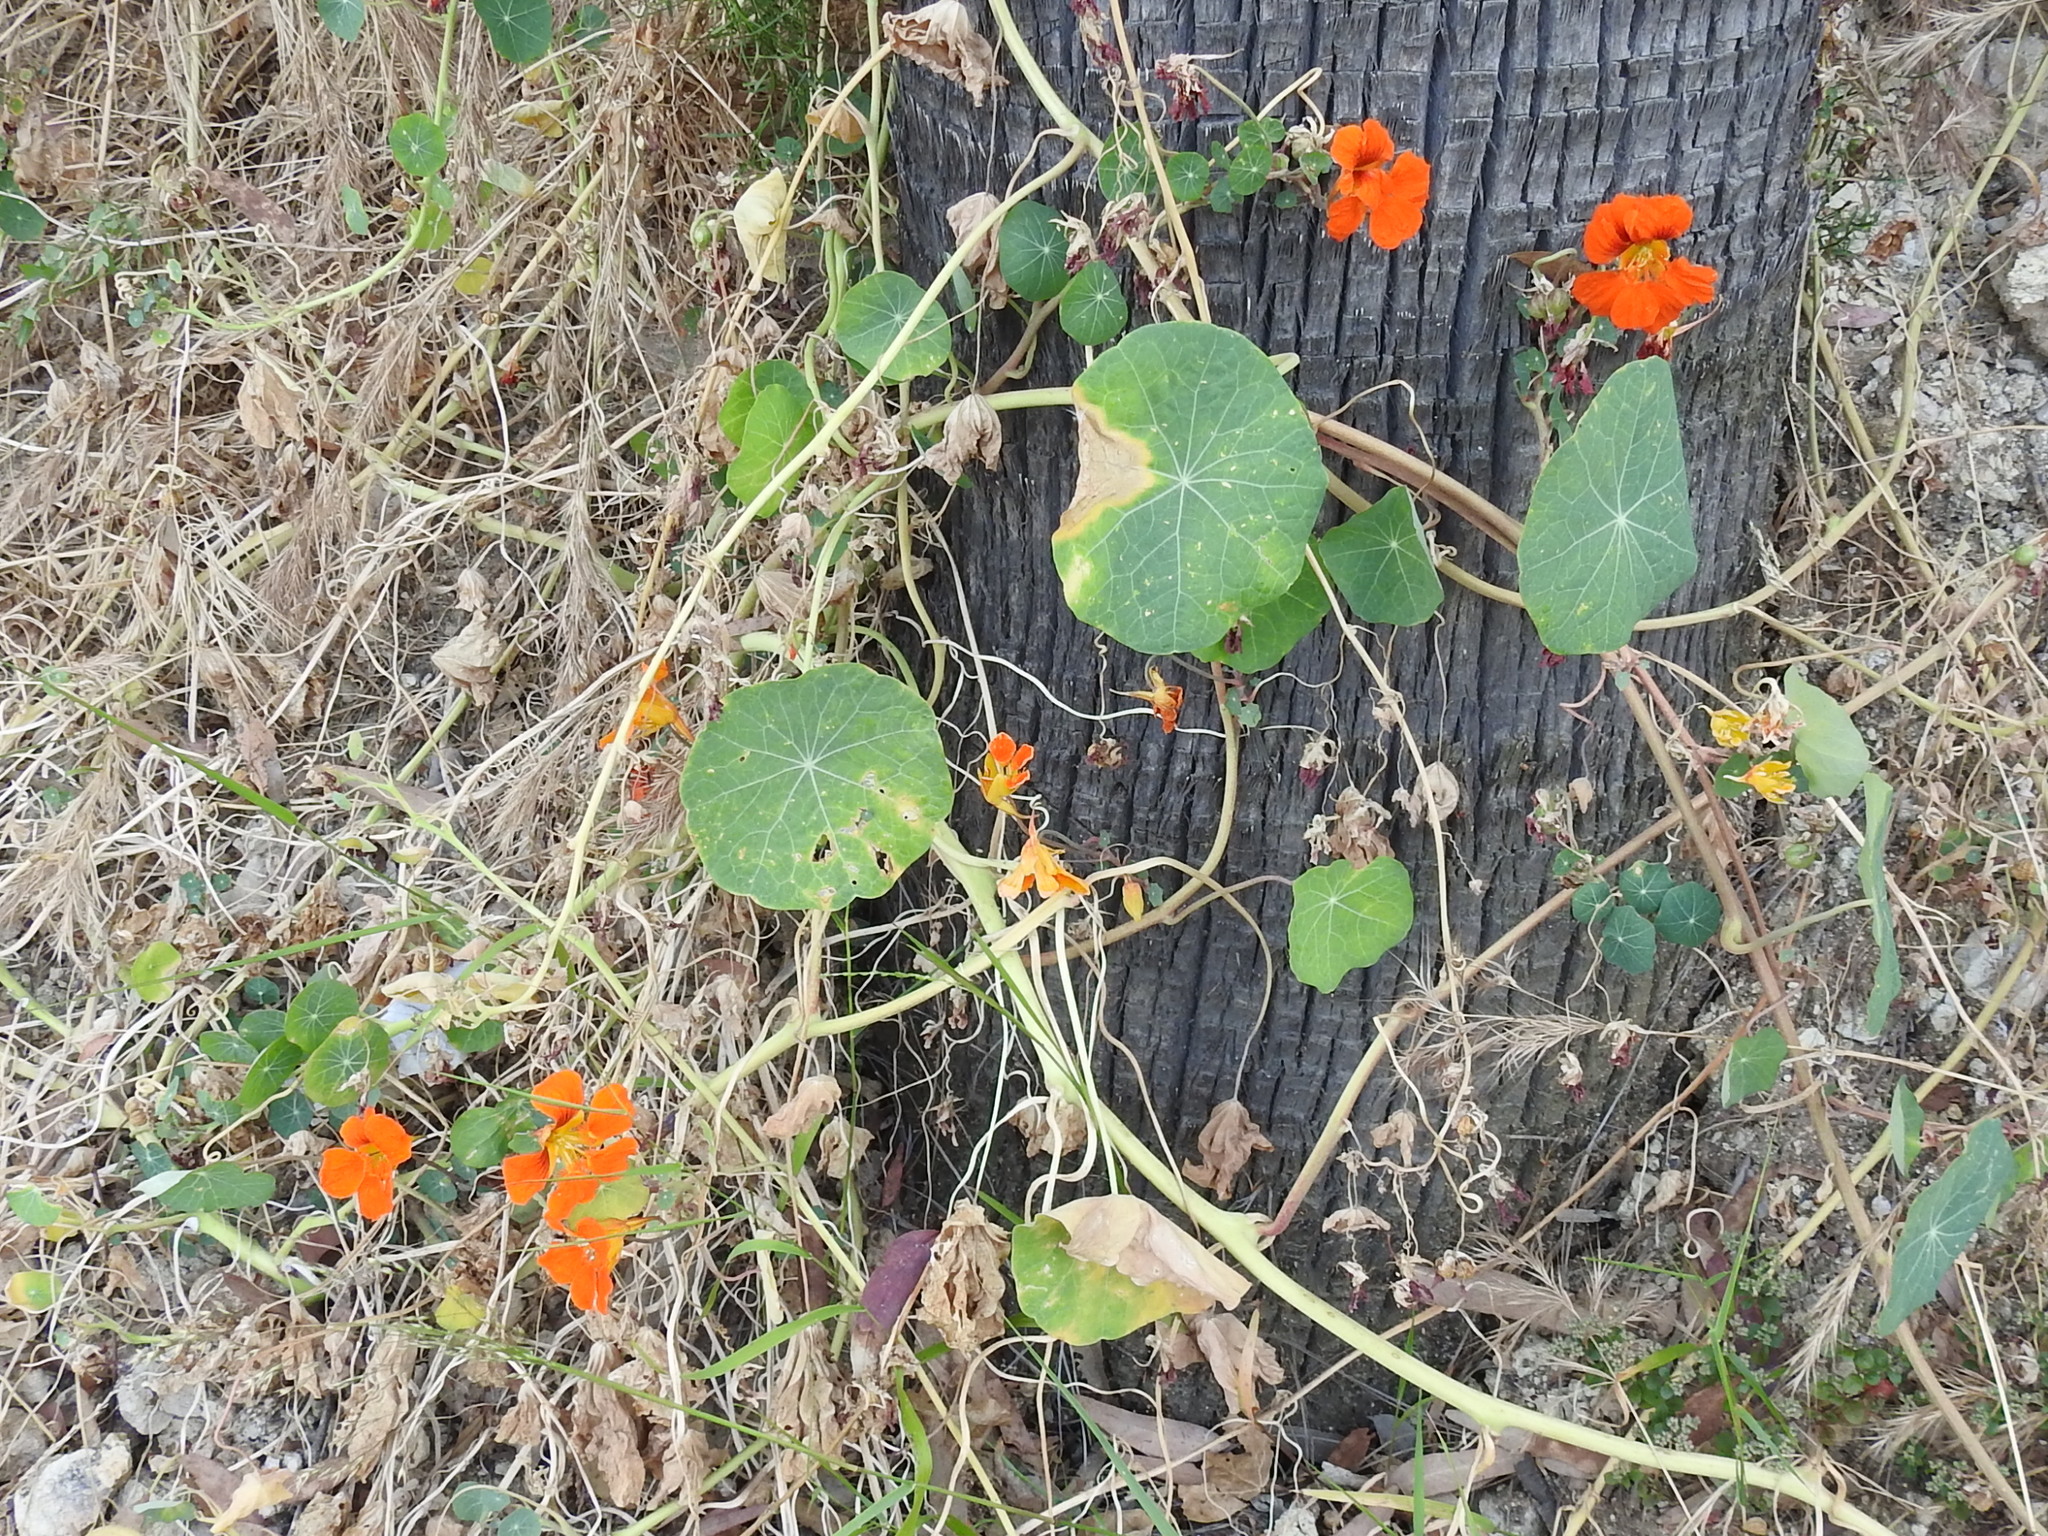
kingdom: Plantae
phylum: Tracheophyta
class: Magnoliopsida
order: Brassicales
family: Tropaeolaceae
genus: Tropaeolum
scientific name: Tropaeolum majus
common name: Nasturtium
